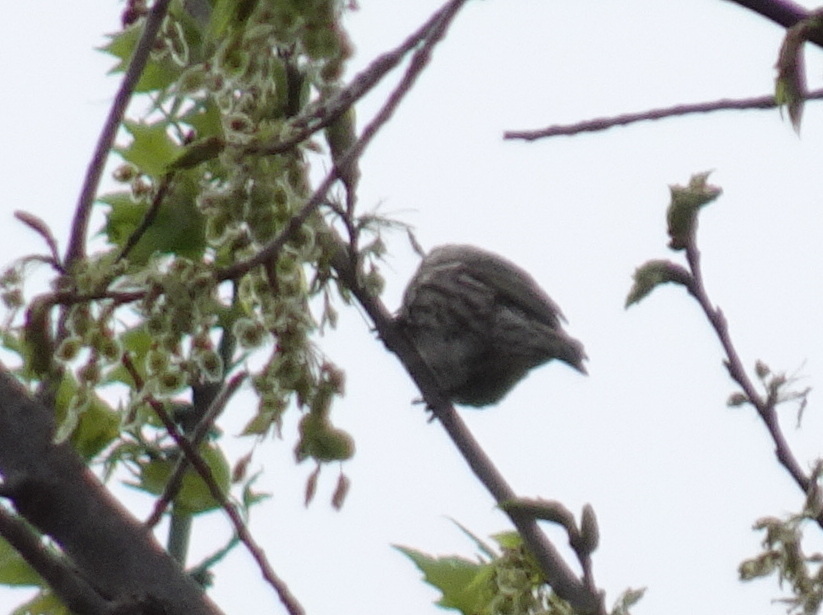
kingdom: Animalia
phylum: Chordata
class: Aves
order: Passeriformes
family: Fringillidae
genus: Spinus
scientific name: Spinus pinus
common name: Pine siskin
